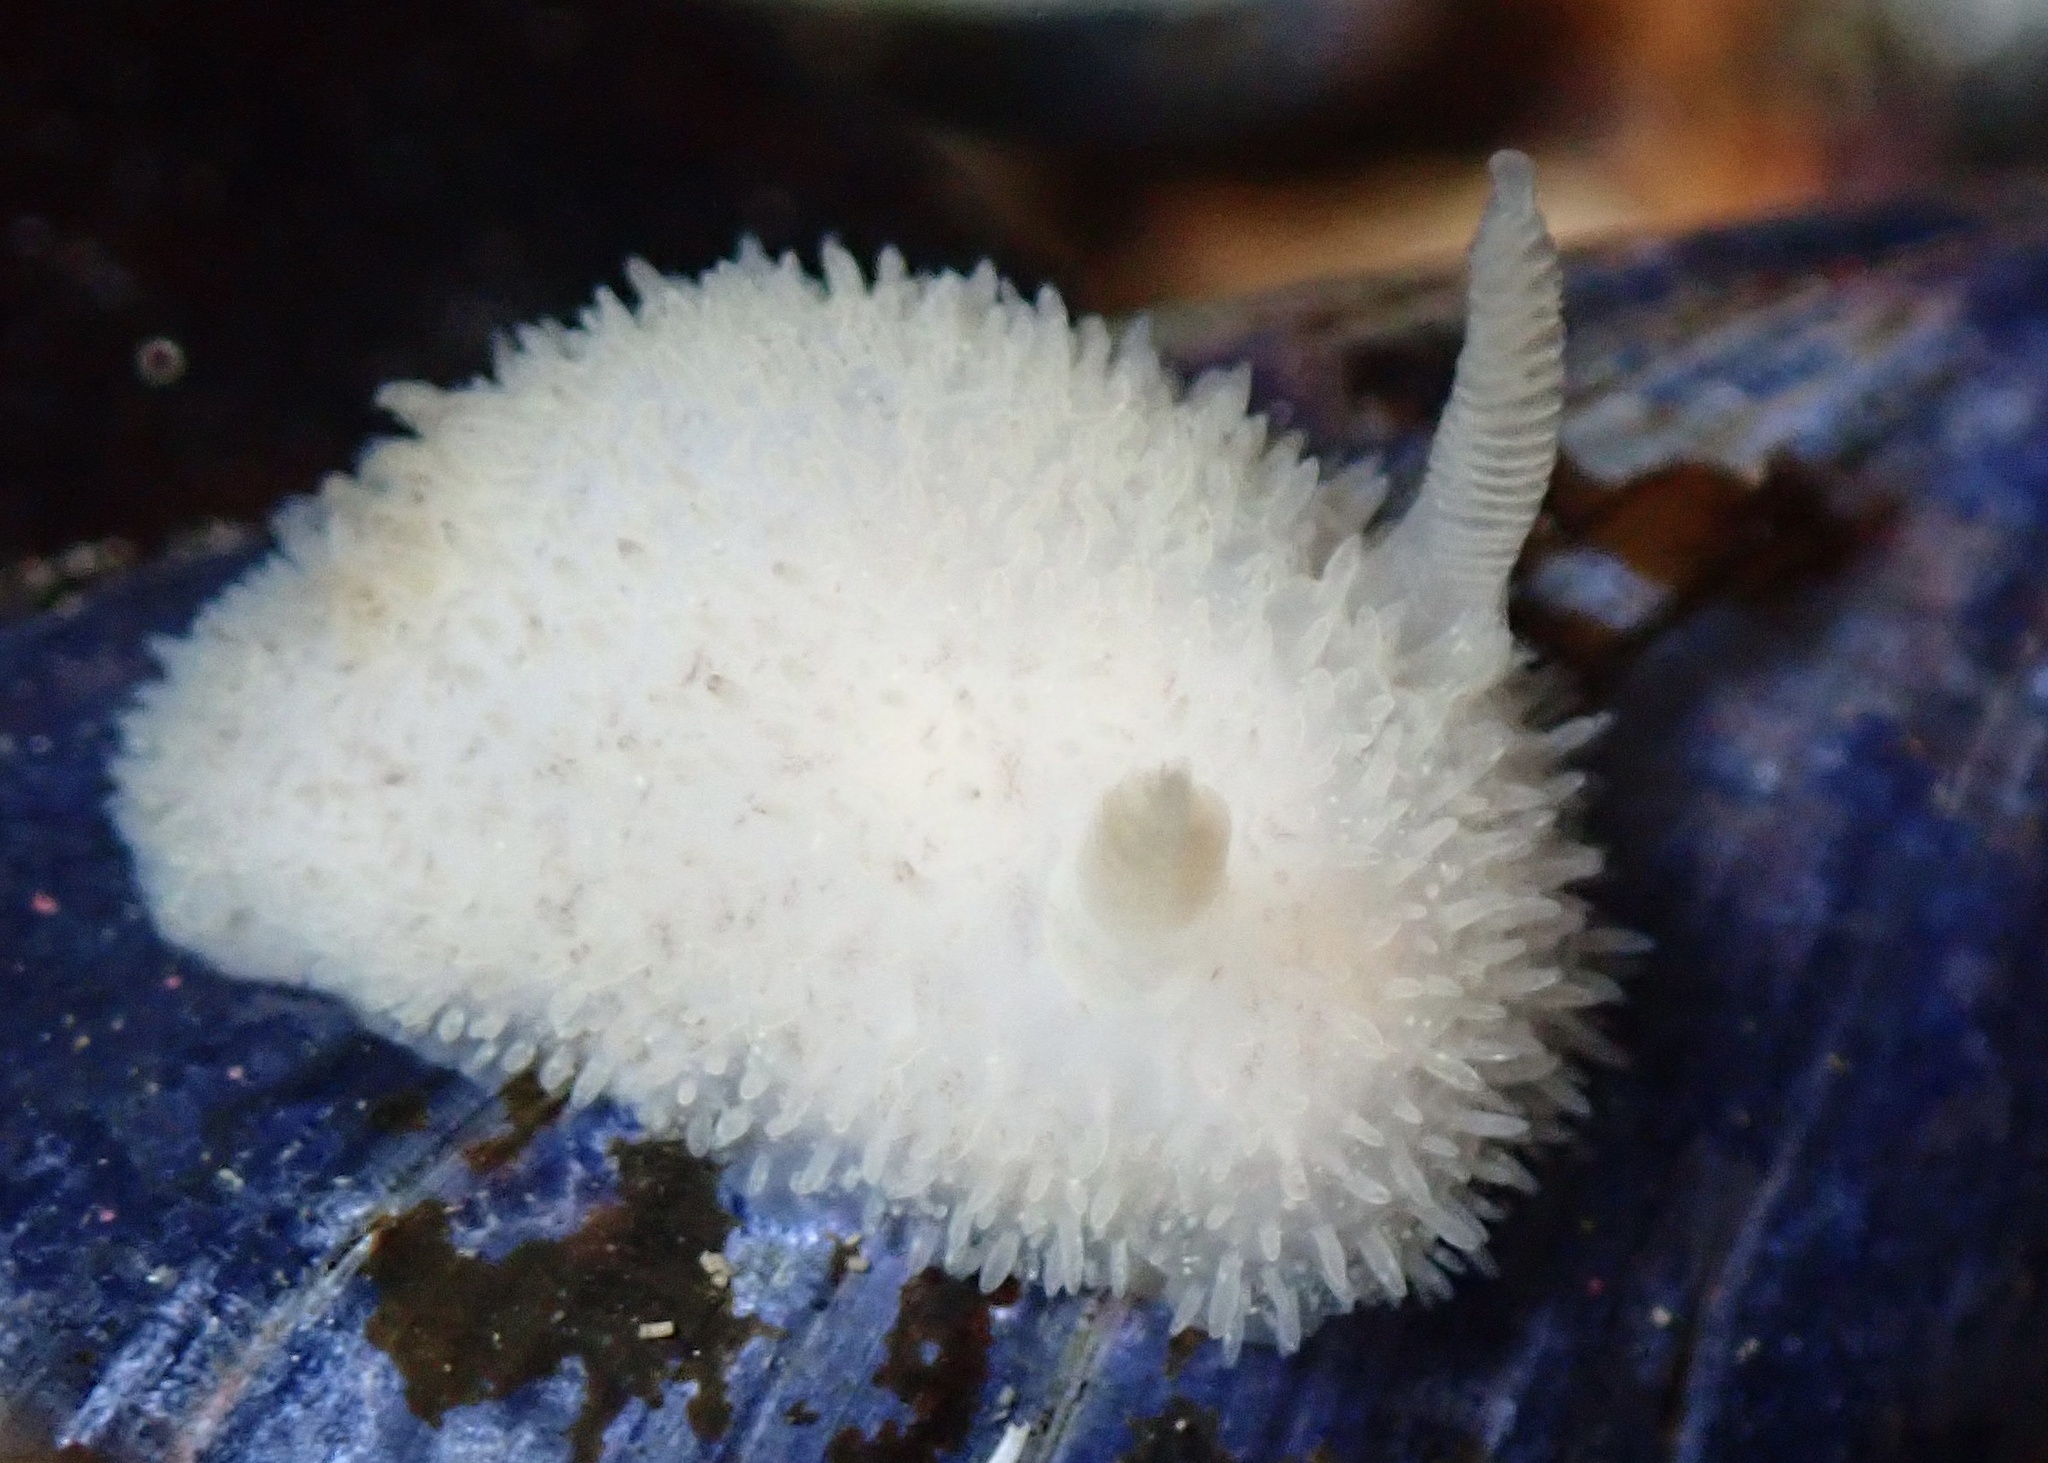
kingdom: Animalia
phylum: Mollusca
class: Gastropoda
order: Nudibranchia
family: Onchidorididae
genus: Acanthodoris
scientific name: Acanthodoris pilosa
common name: Hairy spiny doris
